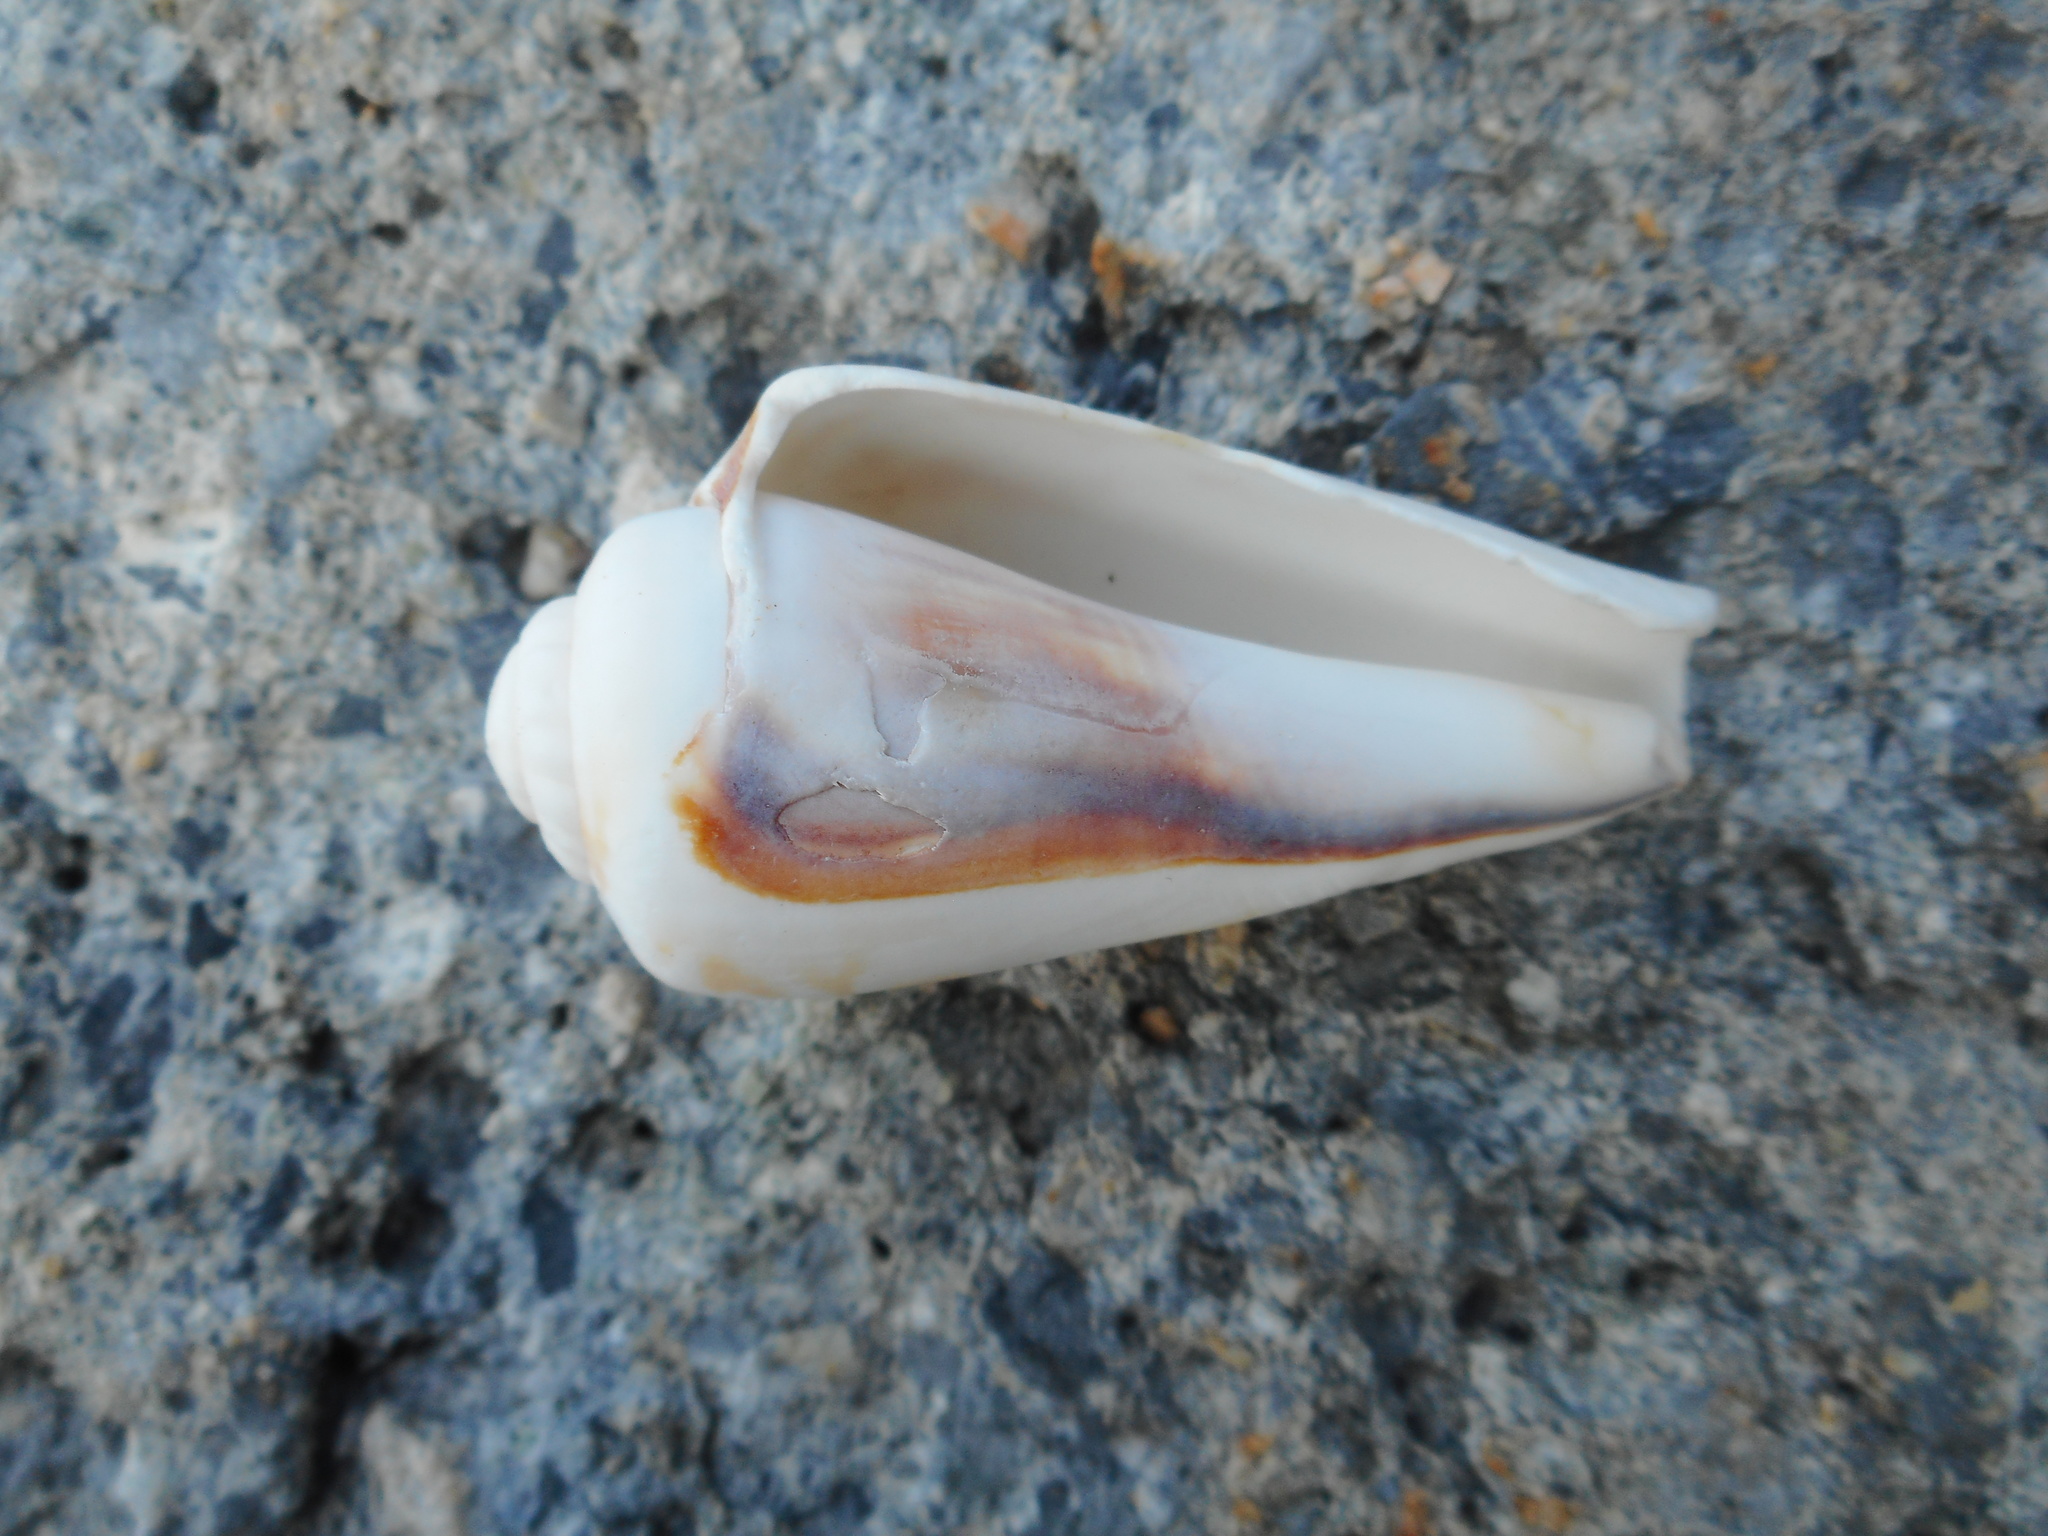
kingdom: Animalia
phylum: Mollusca
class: Gastropoda
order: Littorinimorpha
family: Strombidae
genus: Conomurex
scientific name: Conomurex luhuanus
